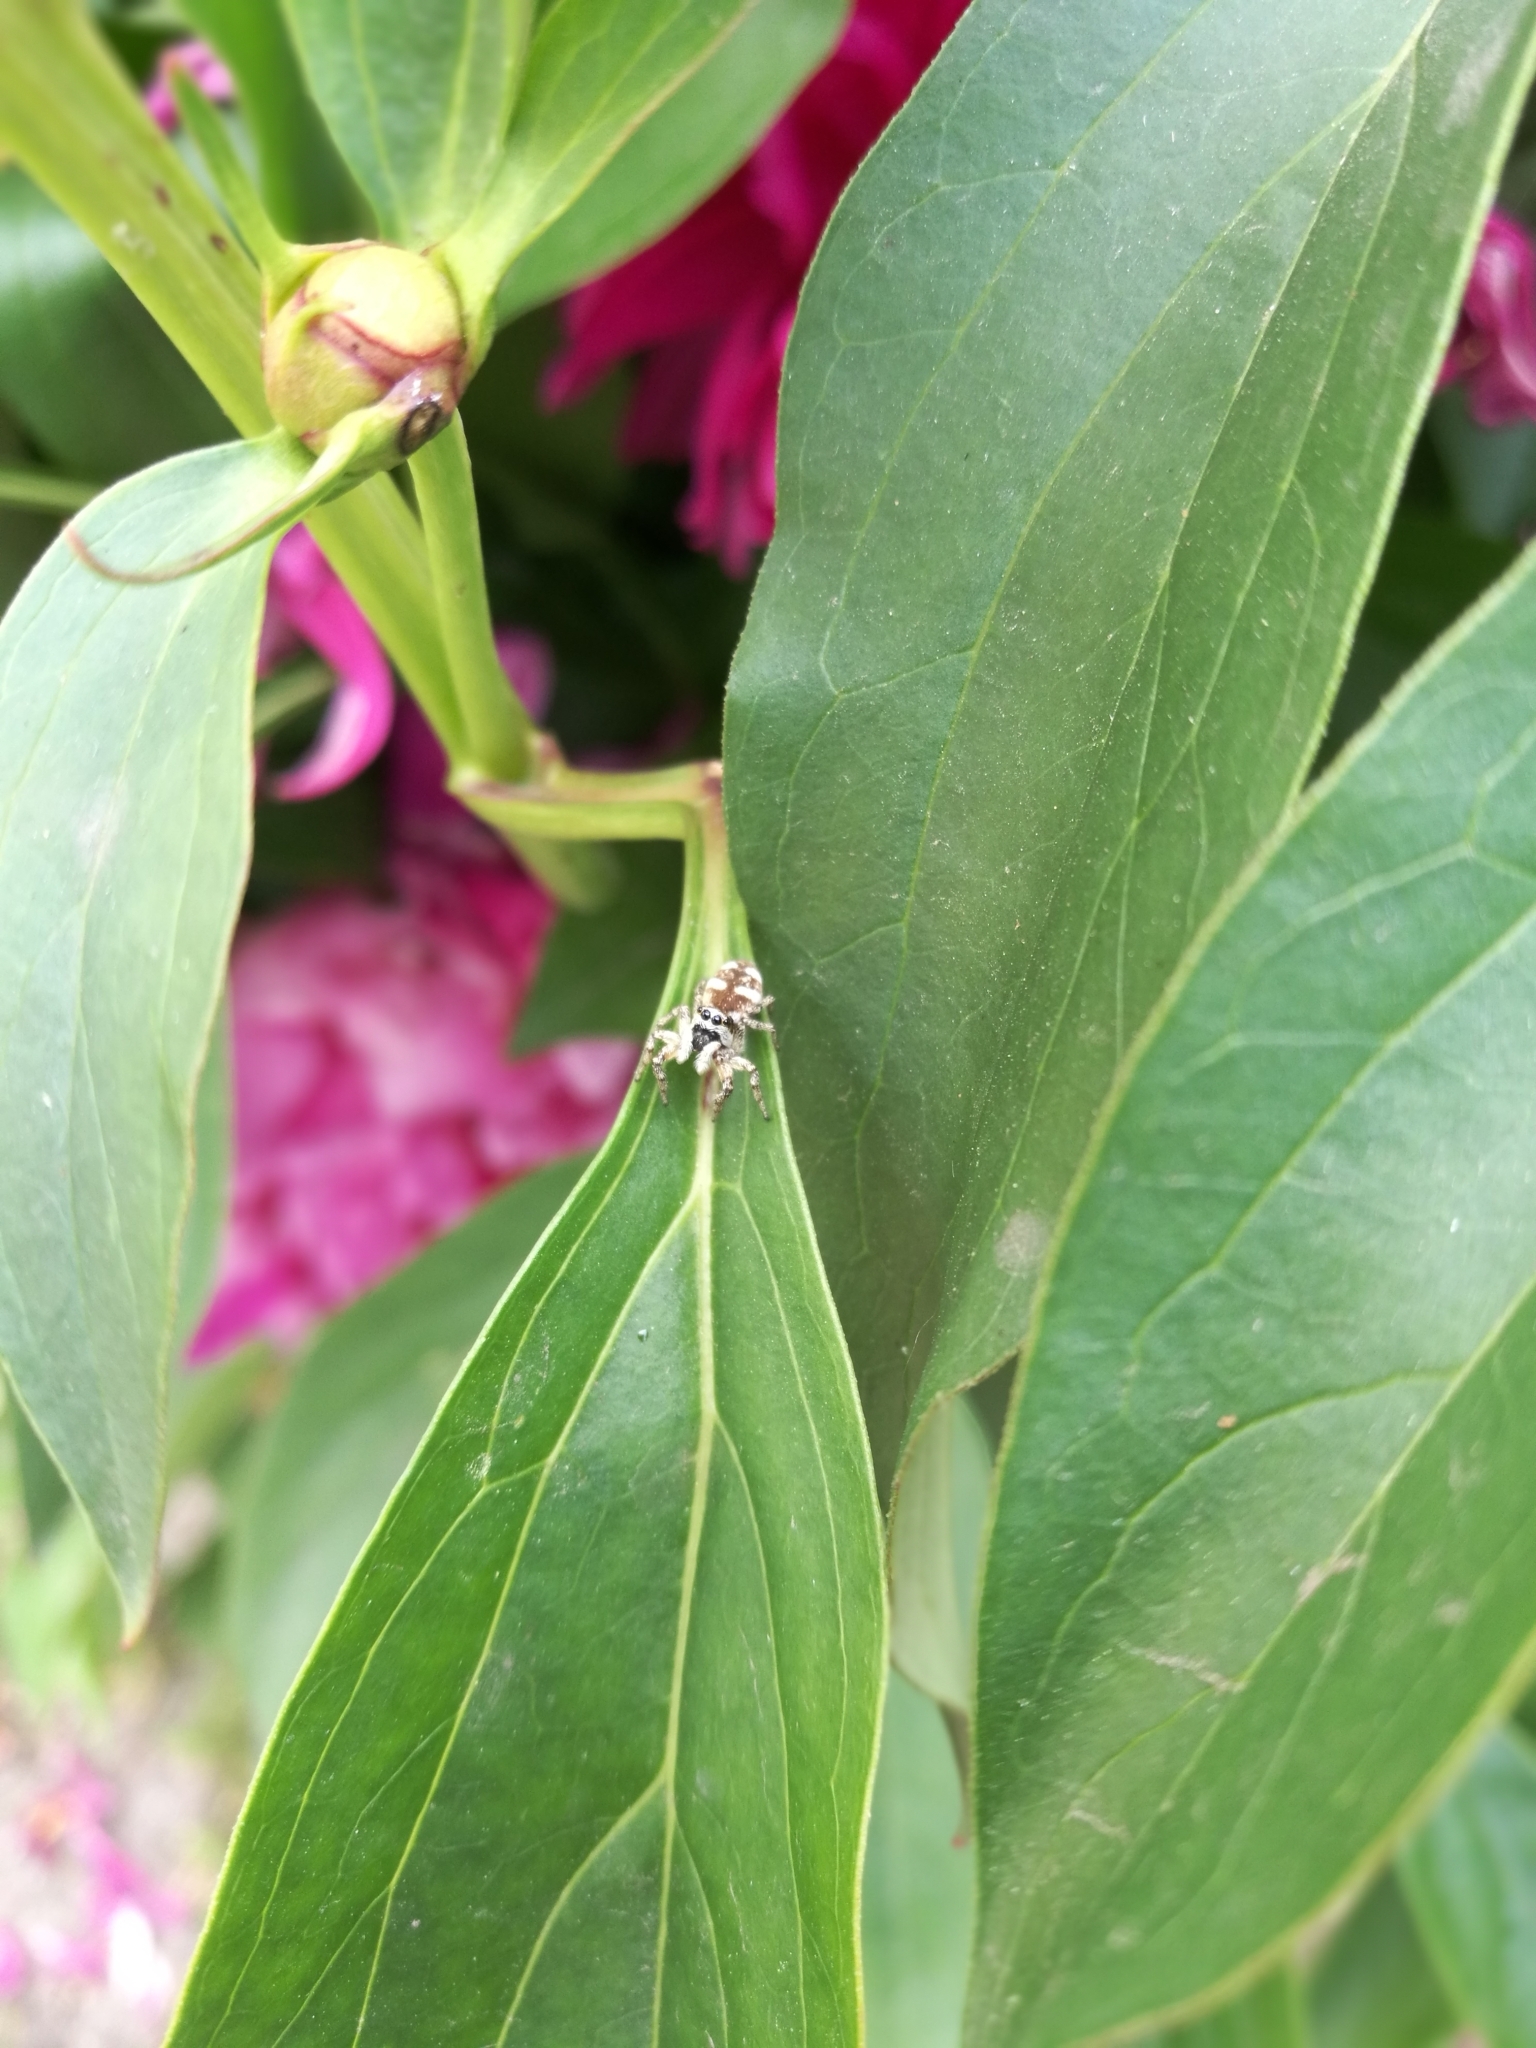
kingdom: Animalia
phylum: Arthropoda
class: Arachnida
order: Araneae
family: Salticidae
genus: Salticus
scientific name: Salticus scenicus
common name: Zebra jumper
